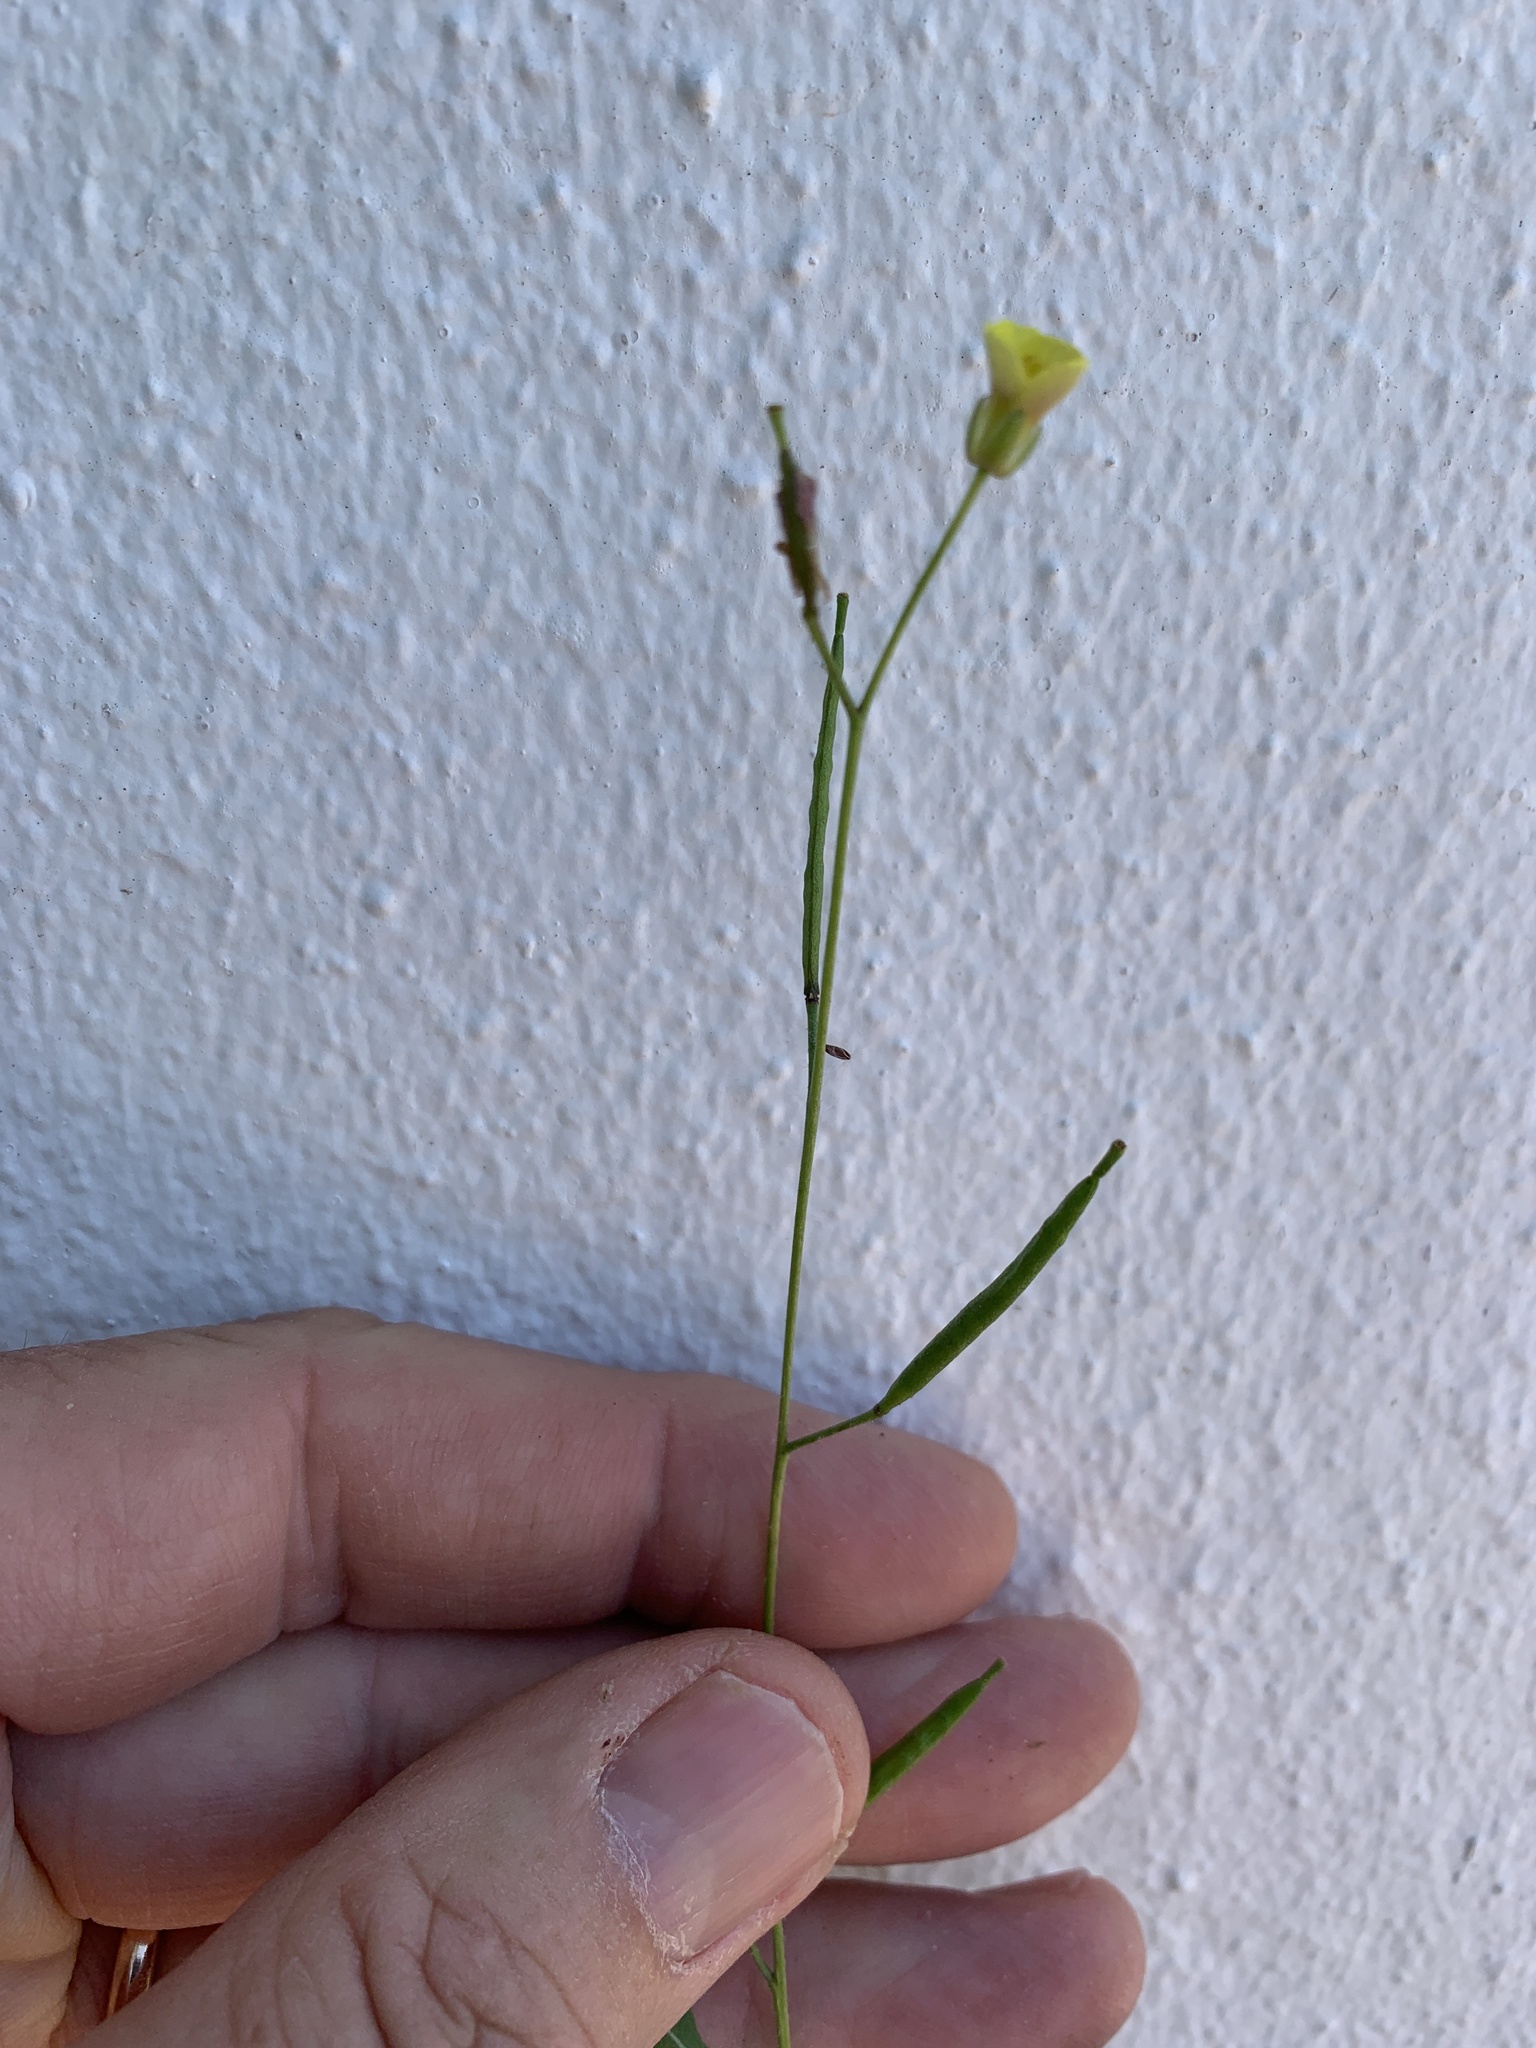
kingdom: Plantae
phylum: Tracheophyta
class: Magnoliopsida
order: Brassicales
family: Brassicaceae
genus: Diplotaxis
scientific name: Diplotaxis muralis
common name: Annual wall-rocket
